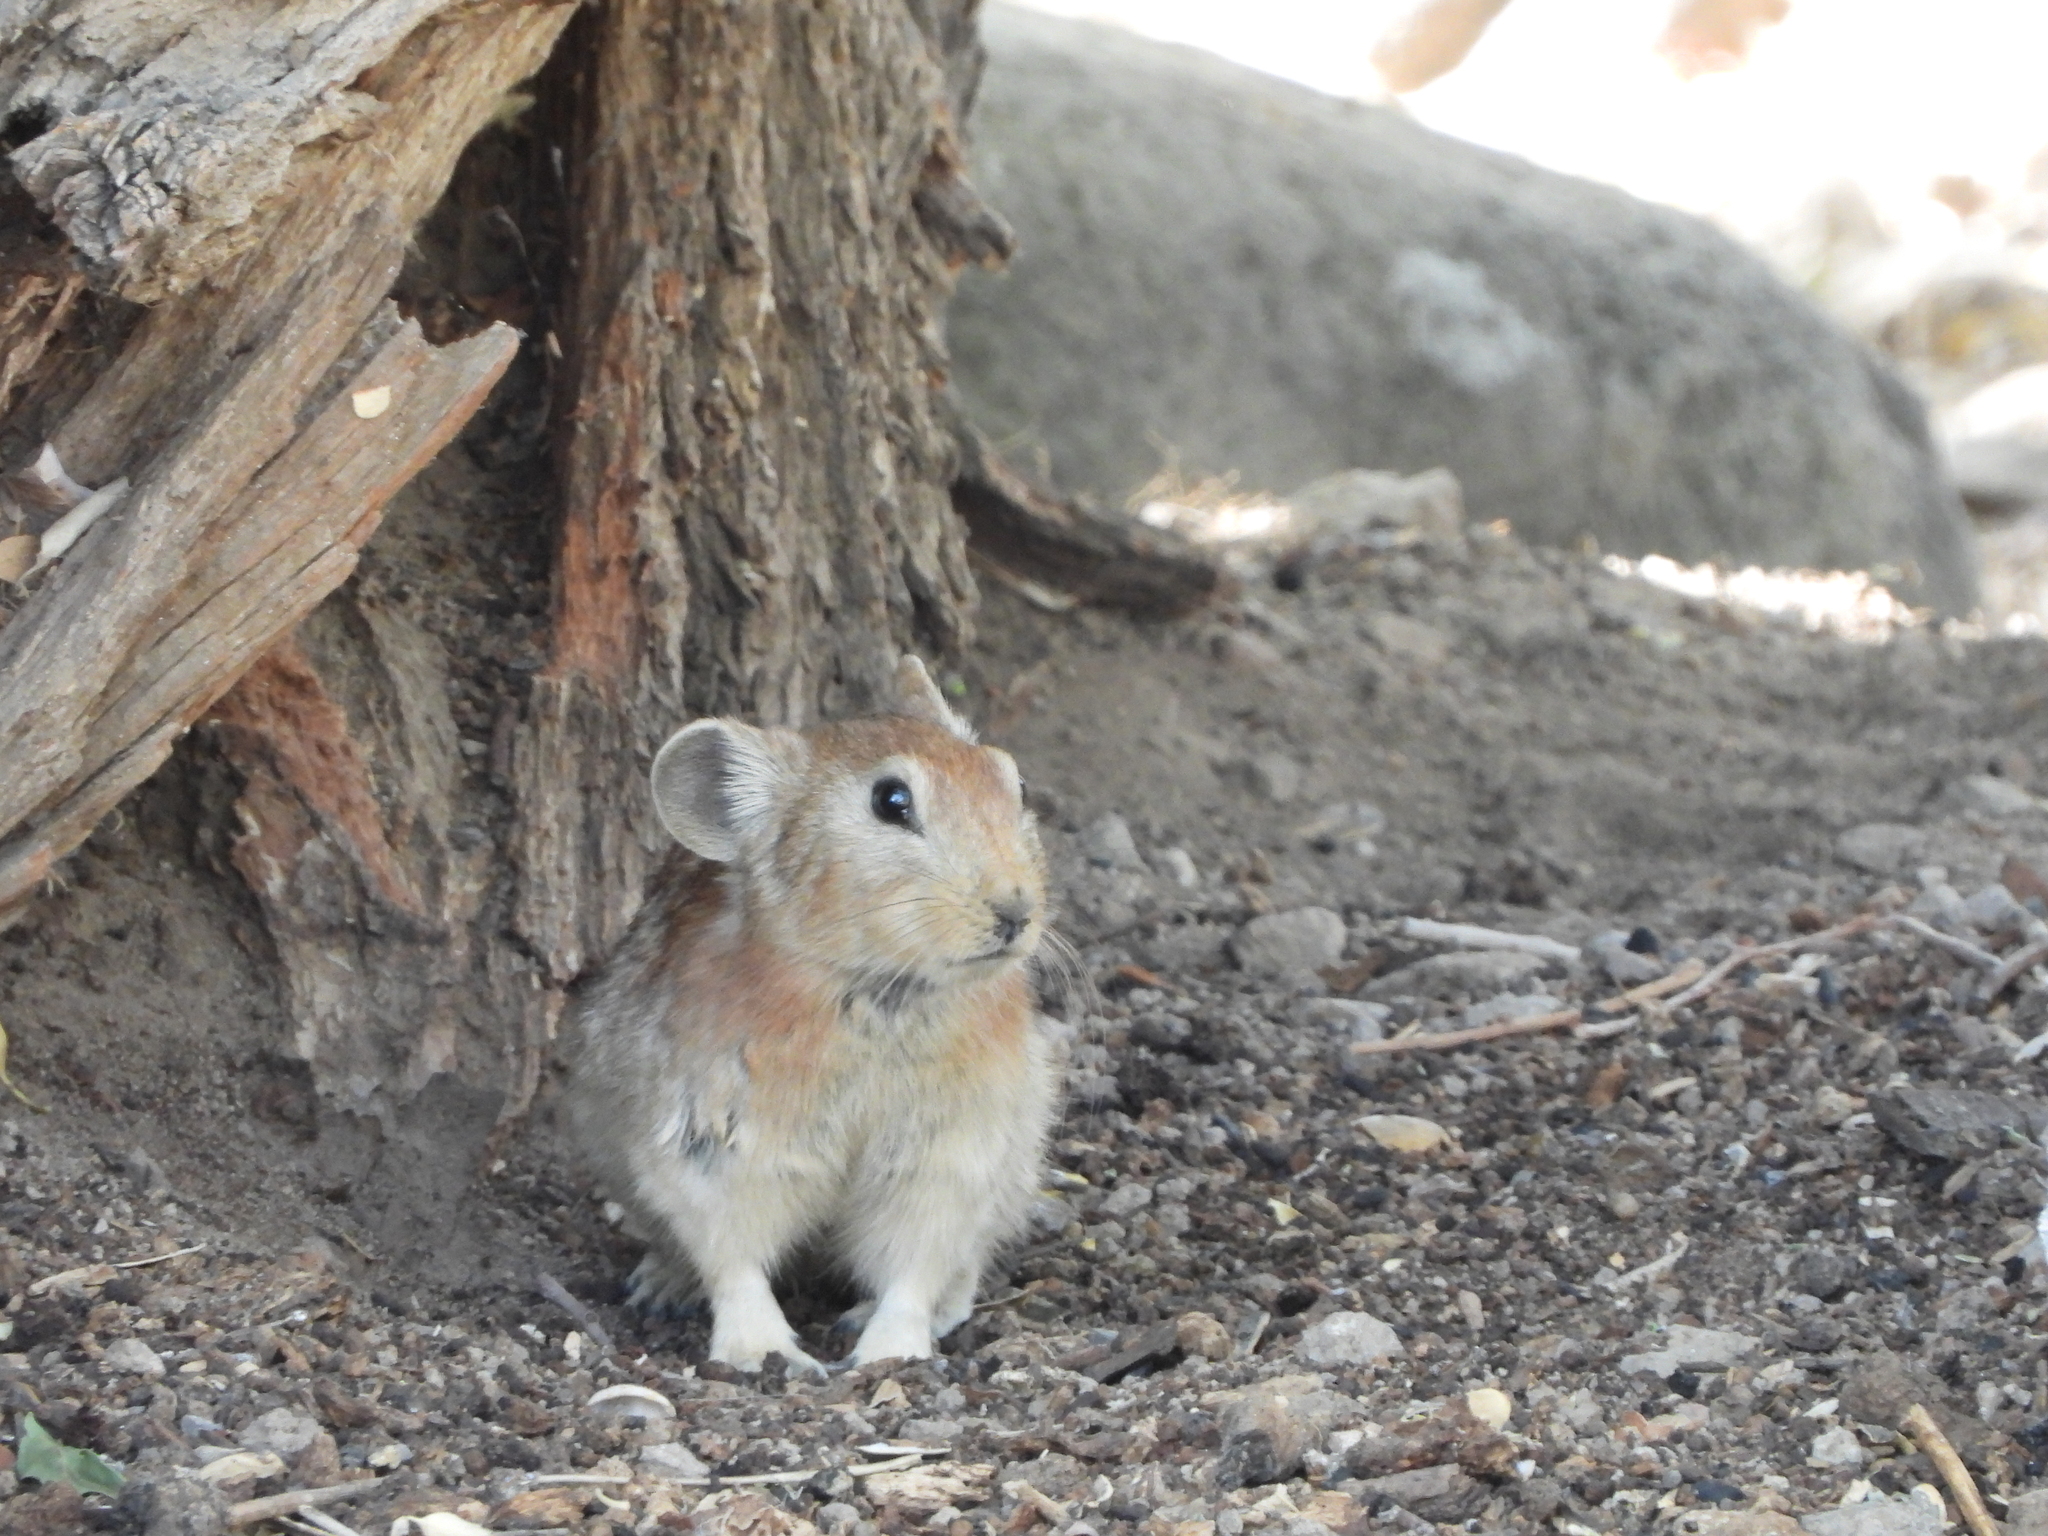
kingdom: Animalia
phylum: Chordata
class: Mammalia
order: Lagomorpha
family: Ochotonidae
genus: Ochotona
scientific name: Ochotona rufescens
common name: Afghan pika
